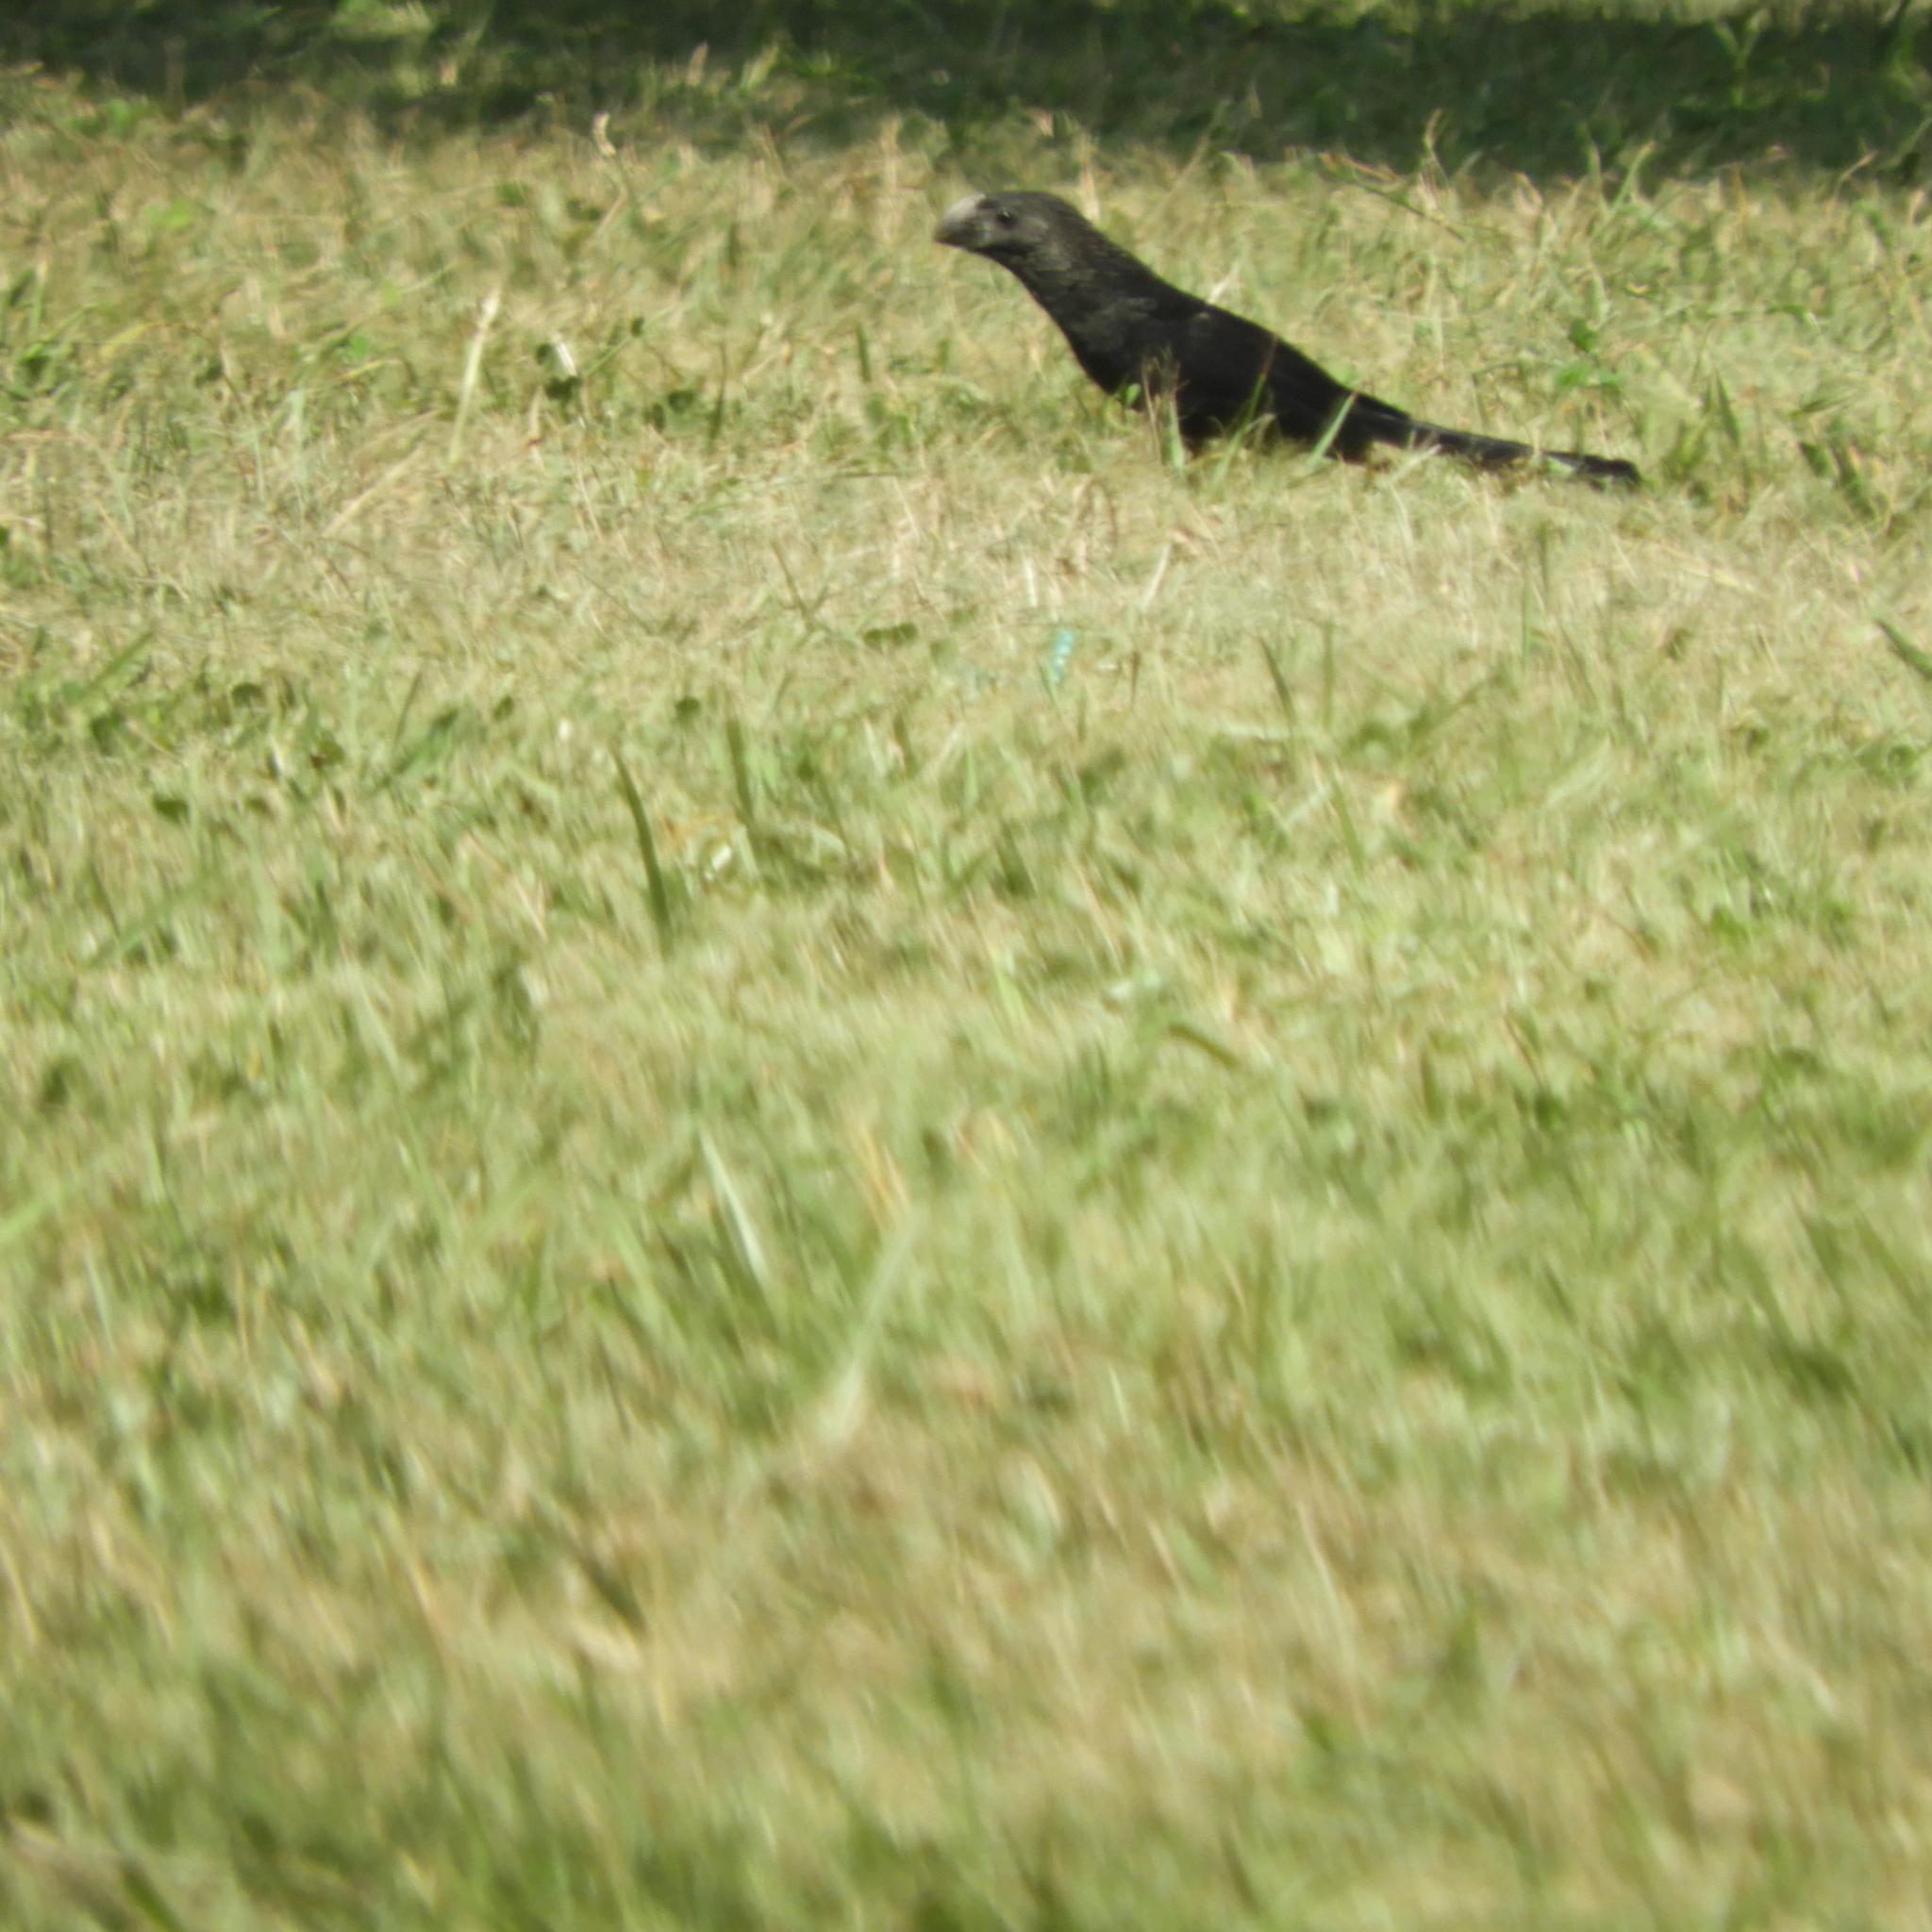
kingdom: Animalia
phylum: Chordata
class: Aves
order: Cuculiformes
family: Cuculidae
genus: Crotophaga
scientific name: Crotophaga ani
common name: Smooth-billed ani
